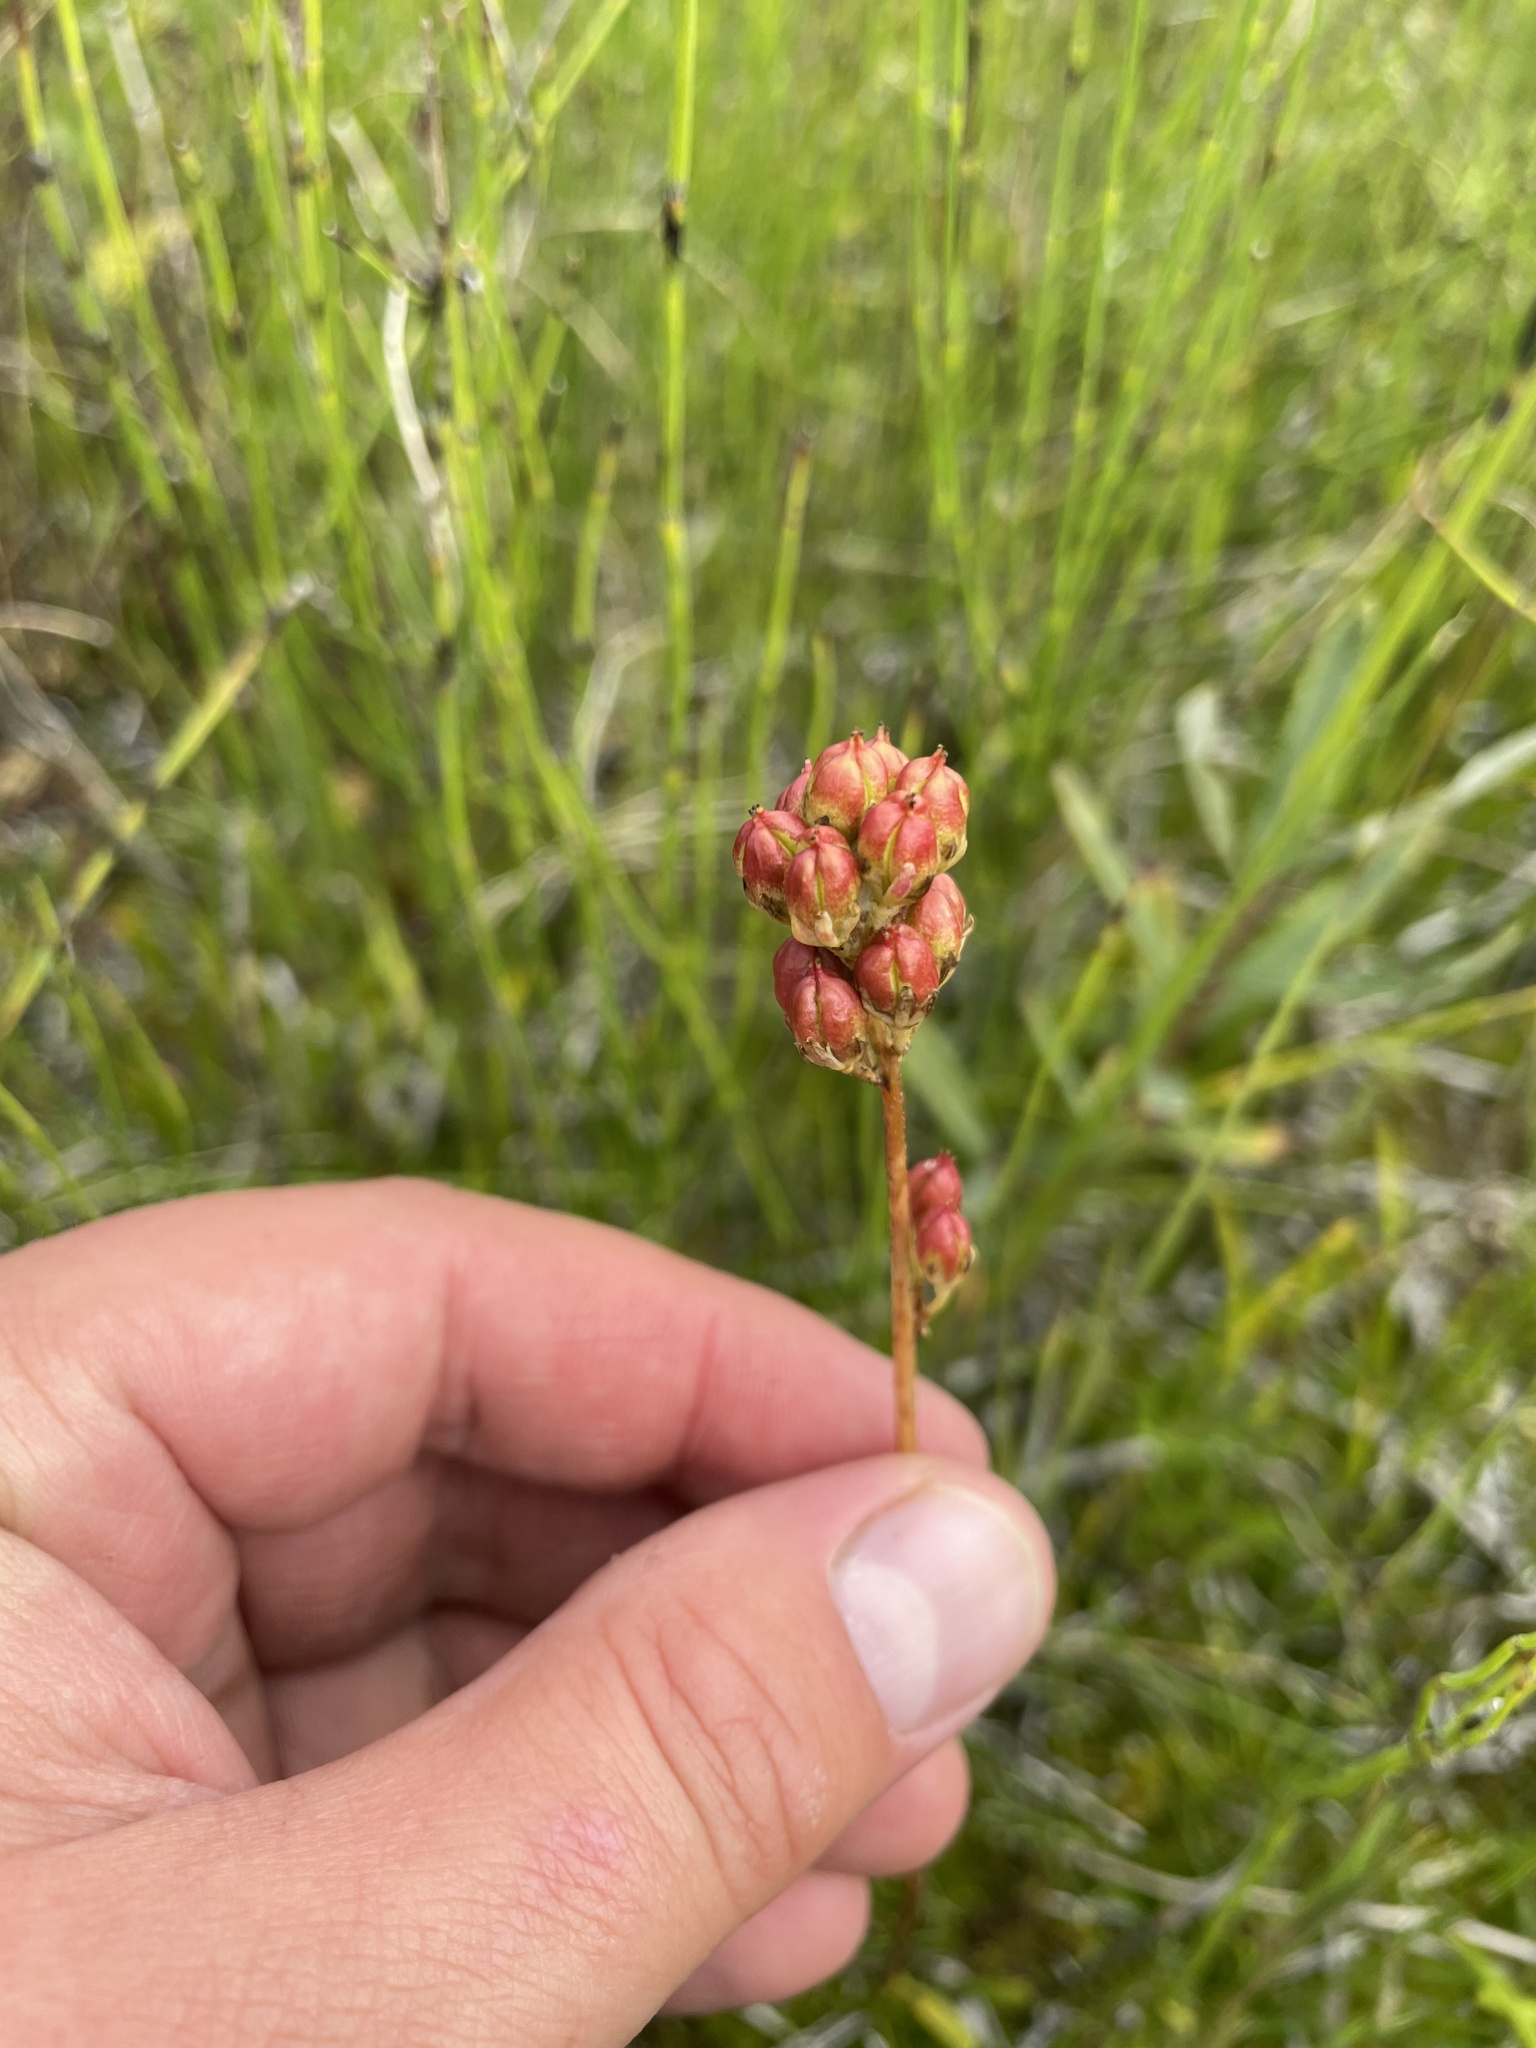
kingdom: Plantae
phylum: Tracheophyta
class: Liliopsida
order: Alismatales
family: Tofieldiaceae
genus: Triantha
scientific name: Triantha glutinosa
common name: Glutinous tofieldia
